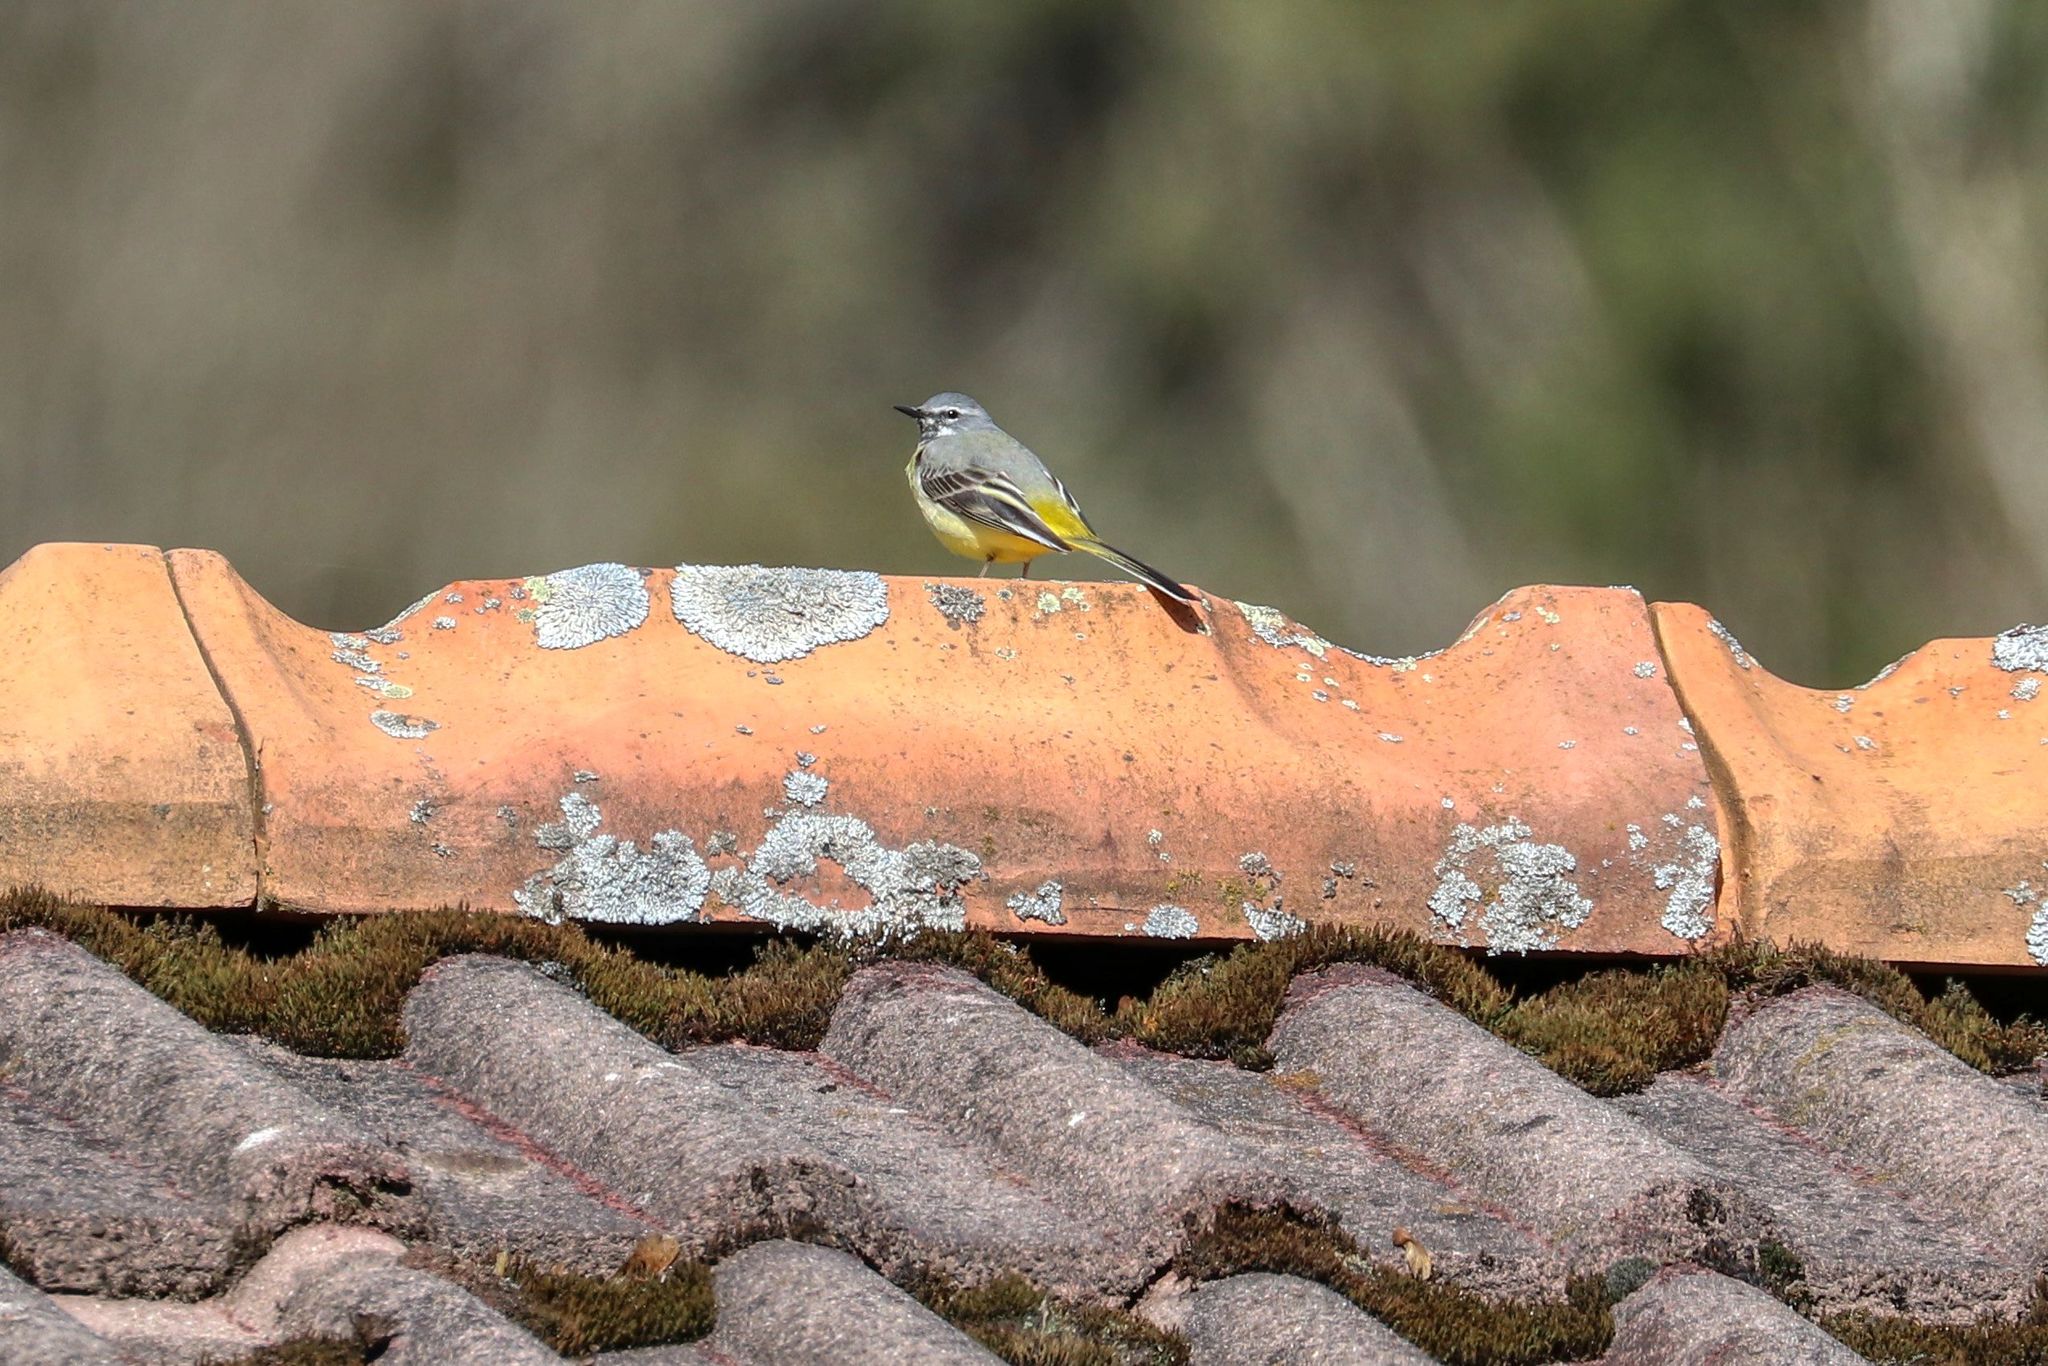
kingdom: Animalia
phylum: Chordata
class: Aves
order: Passeriformes
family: Motacillidae
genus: Motacilla
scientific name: Motacilla cinerea
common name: Grey wagtail
